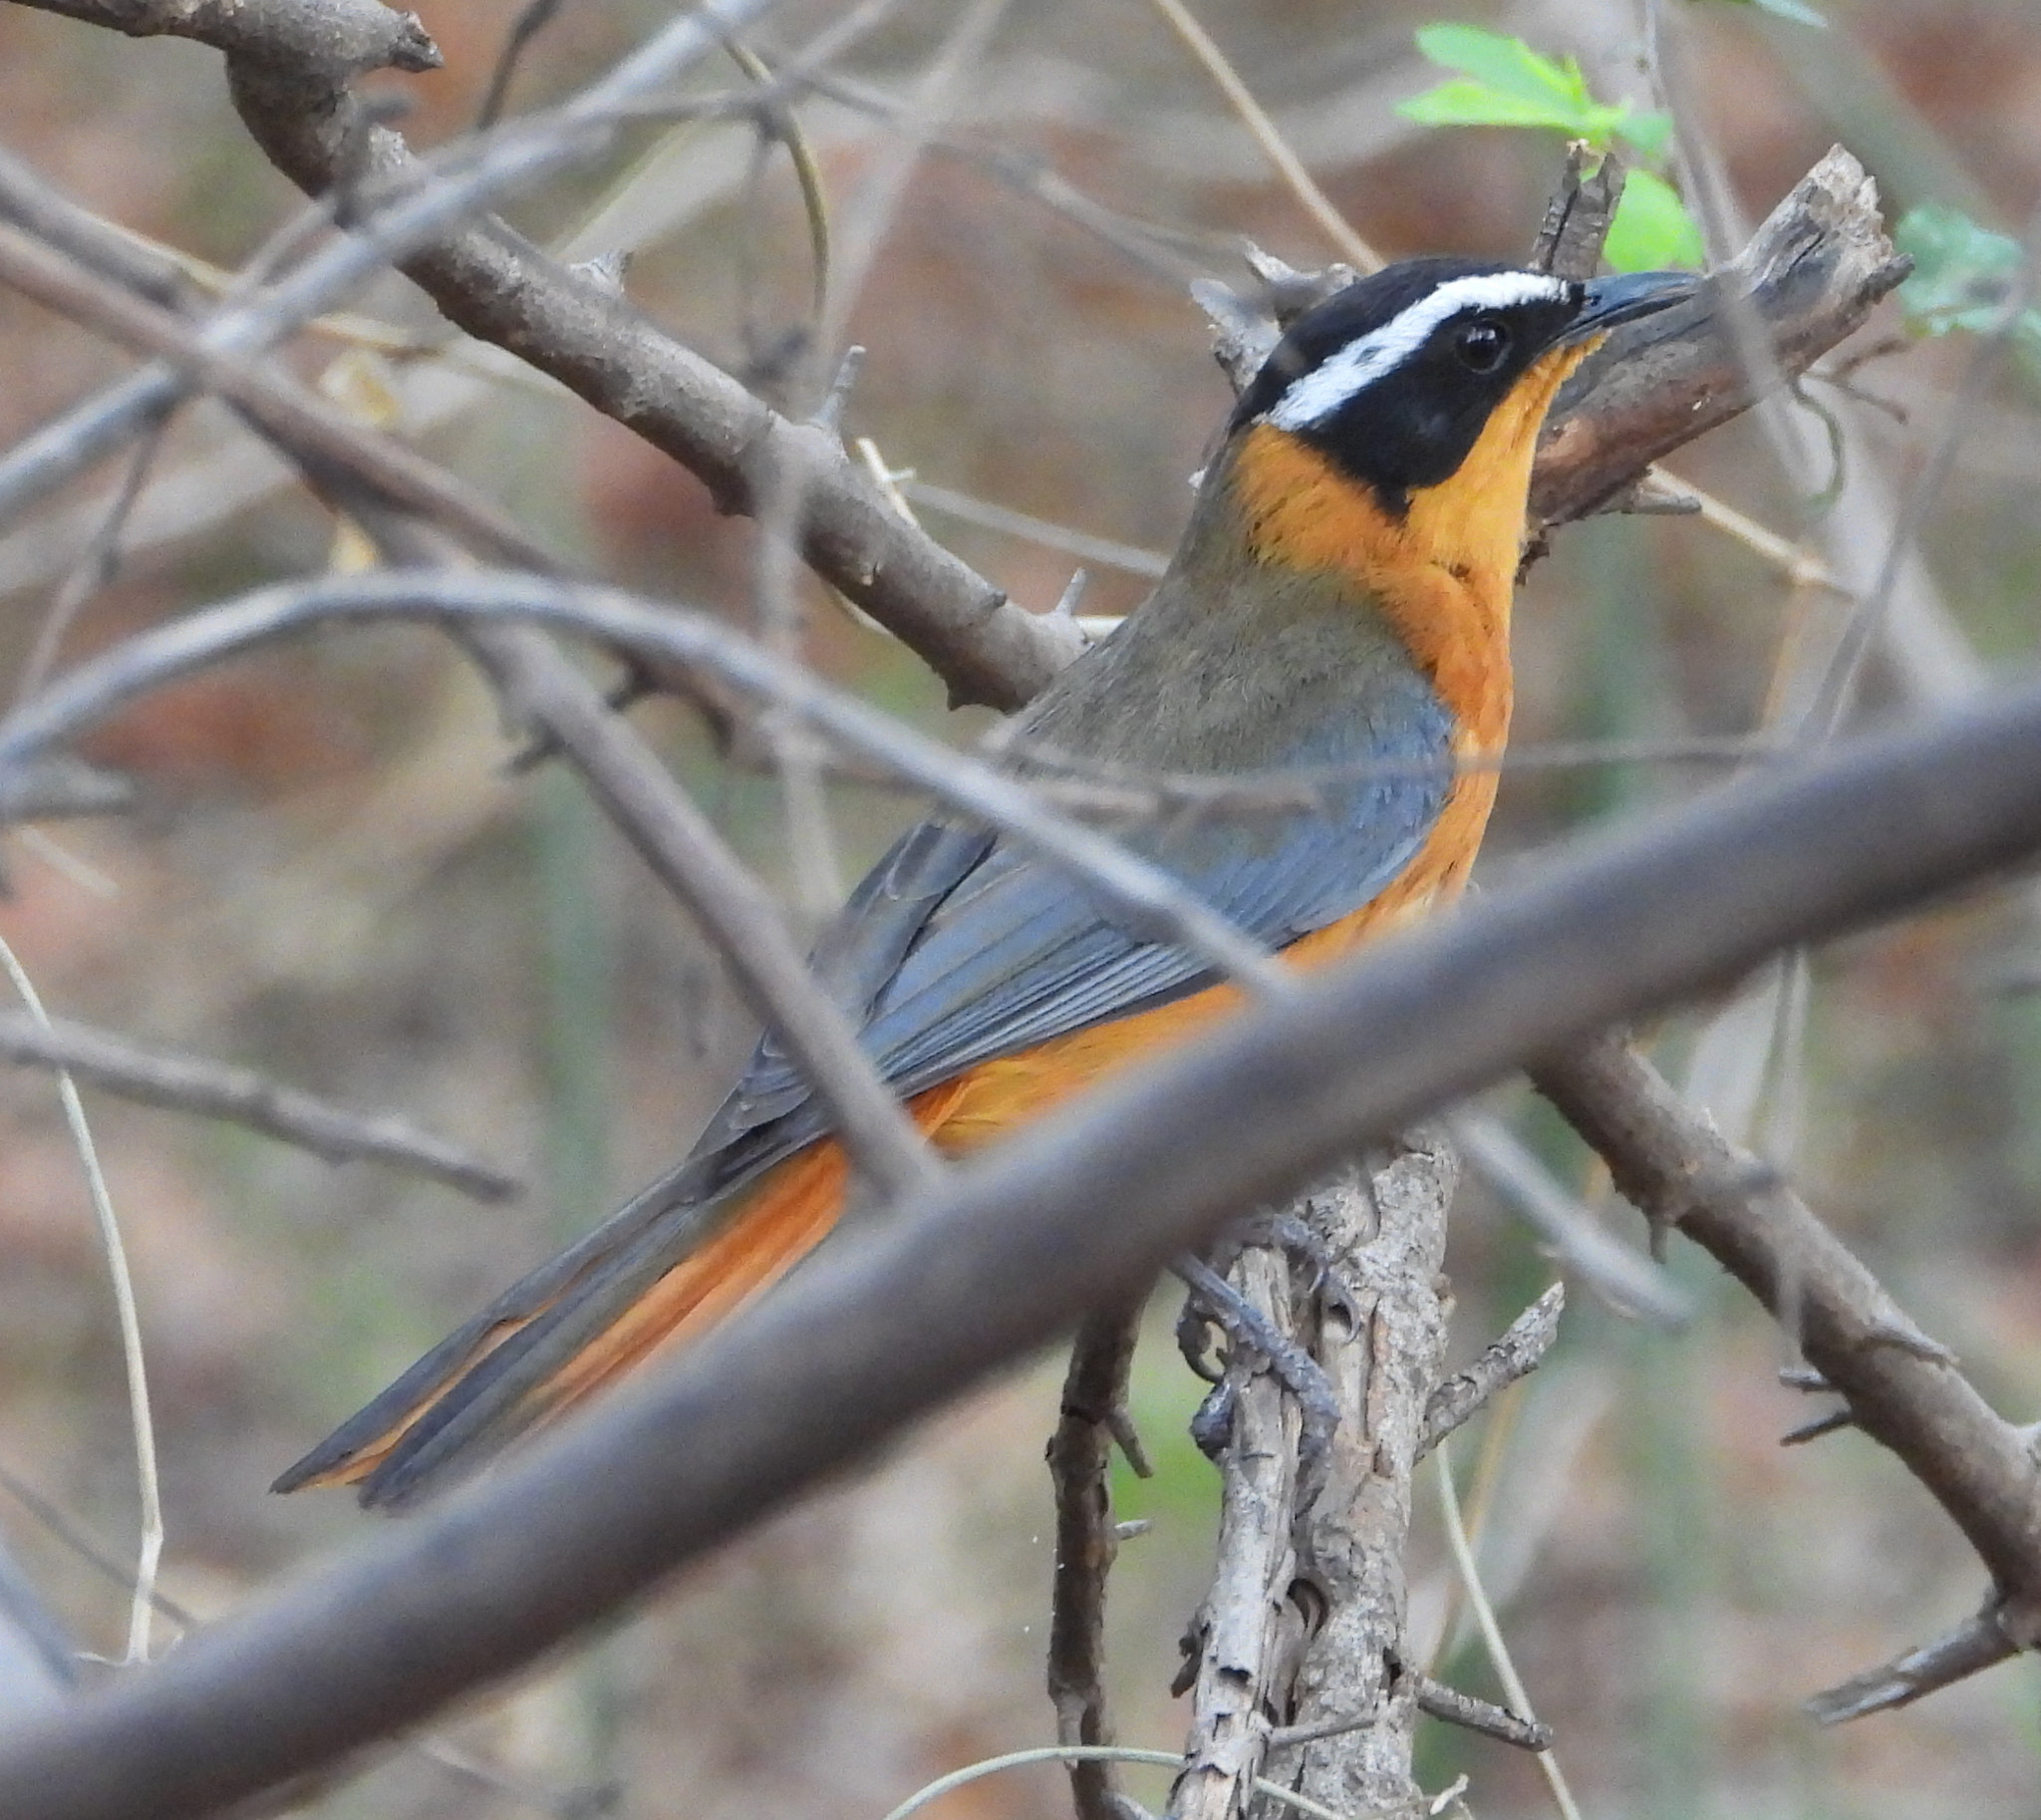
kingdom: Animalia
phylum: Chordata
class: Aves
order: Passeriformes
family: Muscicapidae
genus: Cossypha
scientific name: Cossypha heuglini
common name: White-browed robin-chat
